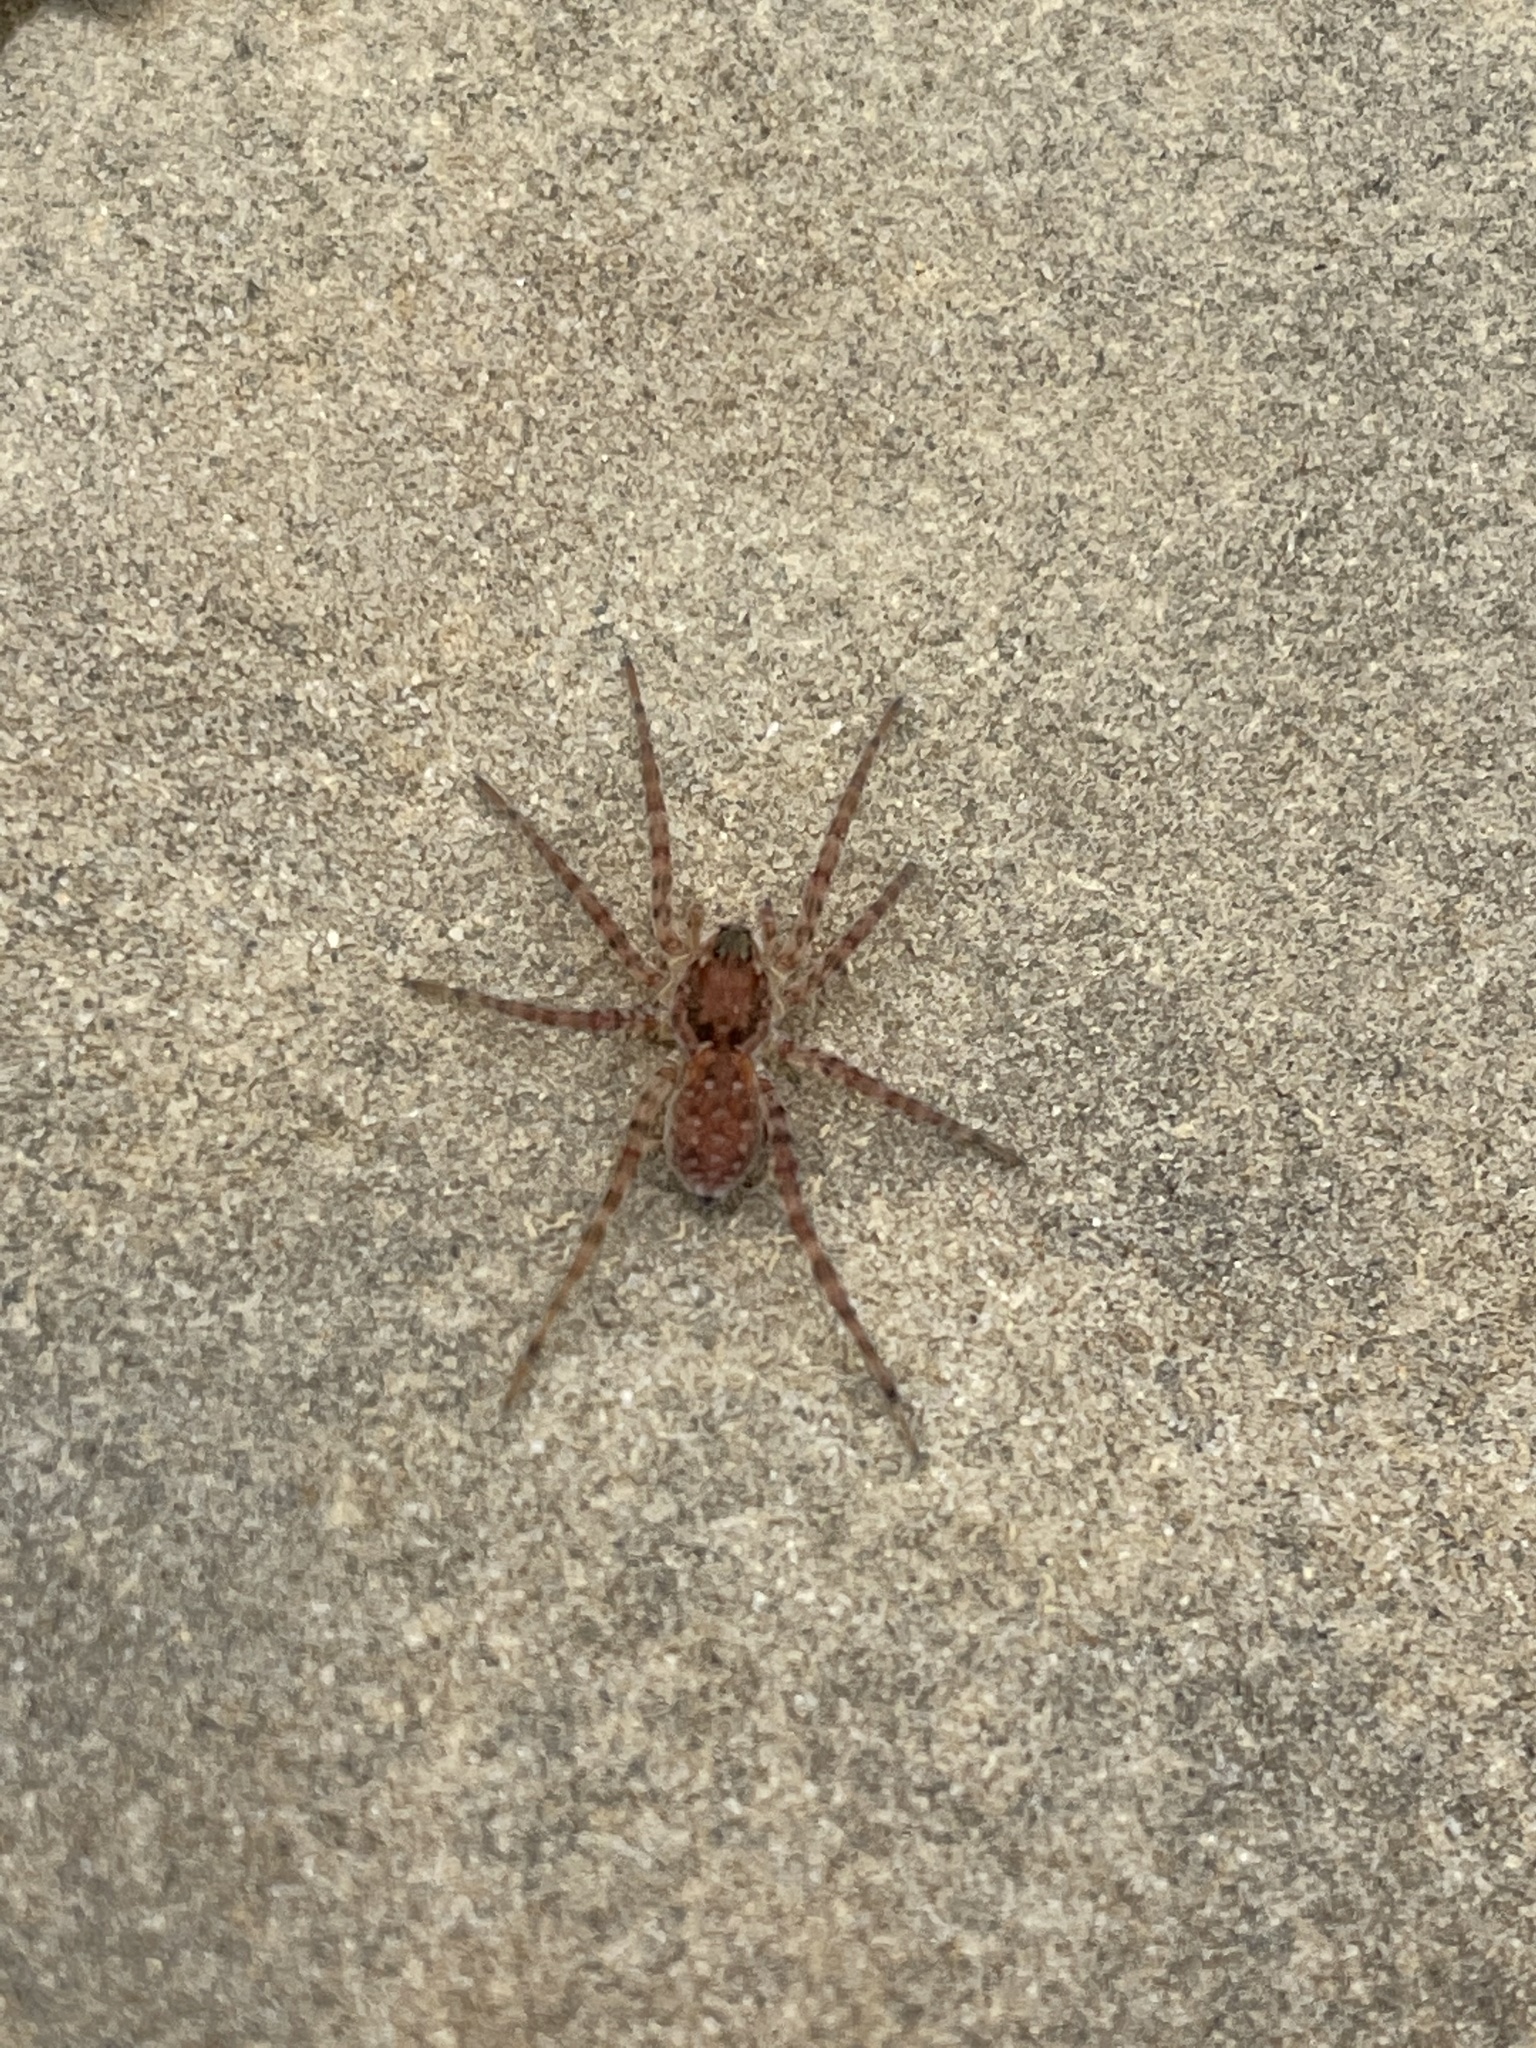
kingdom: Animalia
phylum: Arthropoda
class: Arachnida
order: Araneae
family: Lycosidae
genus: Arctosa
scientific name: Arctosa littoralis
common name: Wolf spiders
